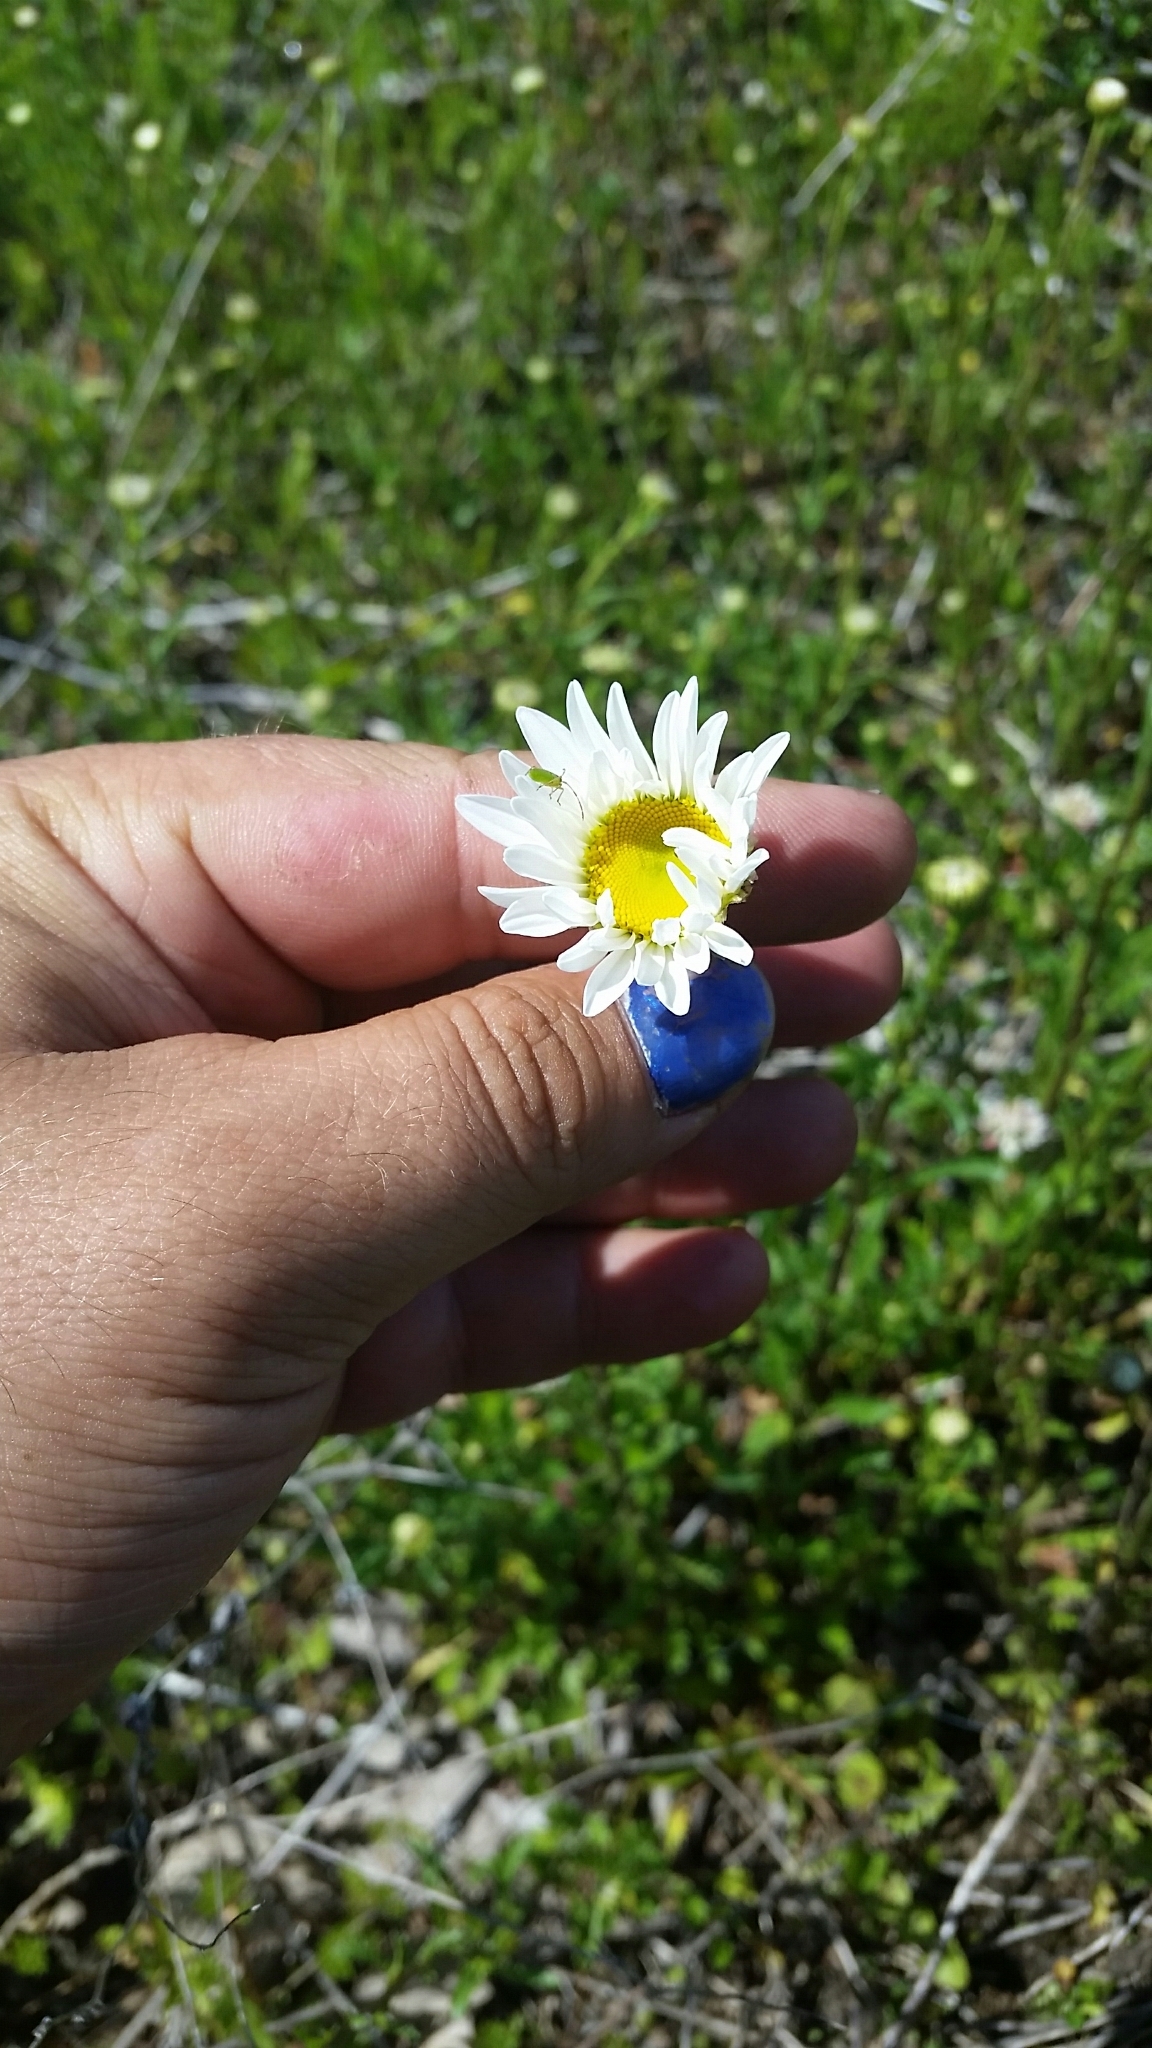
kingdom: Plantae
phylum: Tracheophyta
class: Magnoliopsida
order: Asterales
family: Asteraceae
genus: Leucanthemum
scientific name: Leucanthemum vulgare
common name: Oxeye daisy
